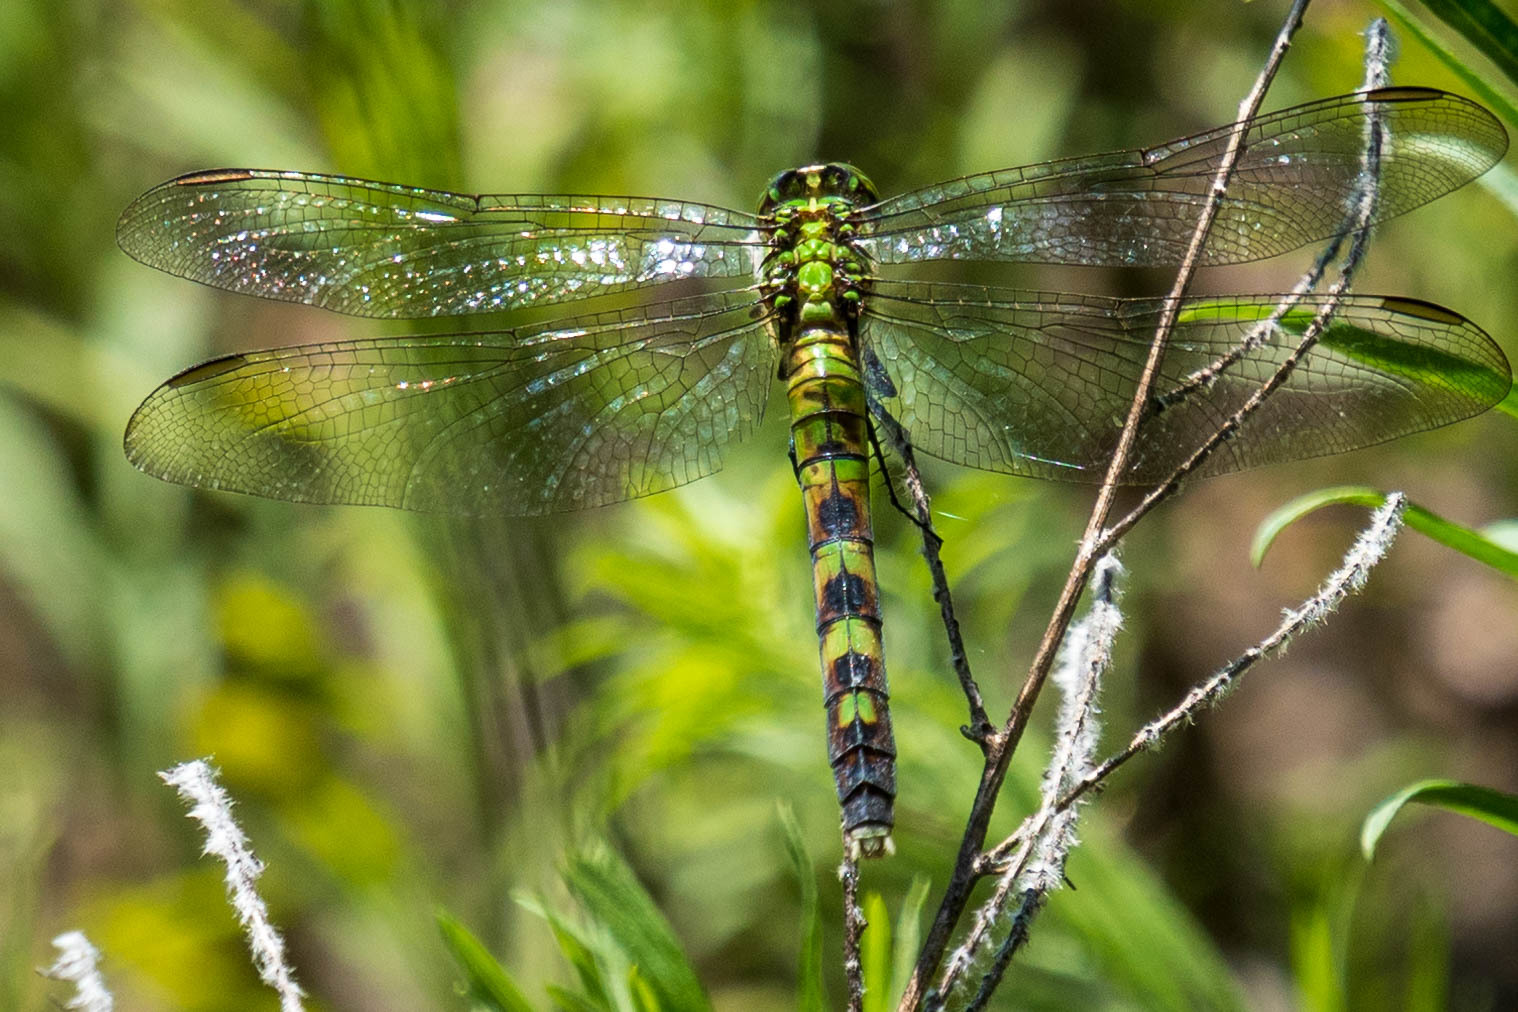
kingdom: Animalia
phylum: Arthropoda
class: Insecta
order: Odonata
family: Libellulidae
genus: Erythemis
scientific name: Erythemis simplicicollis
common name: Eastern pondhawk
